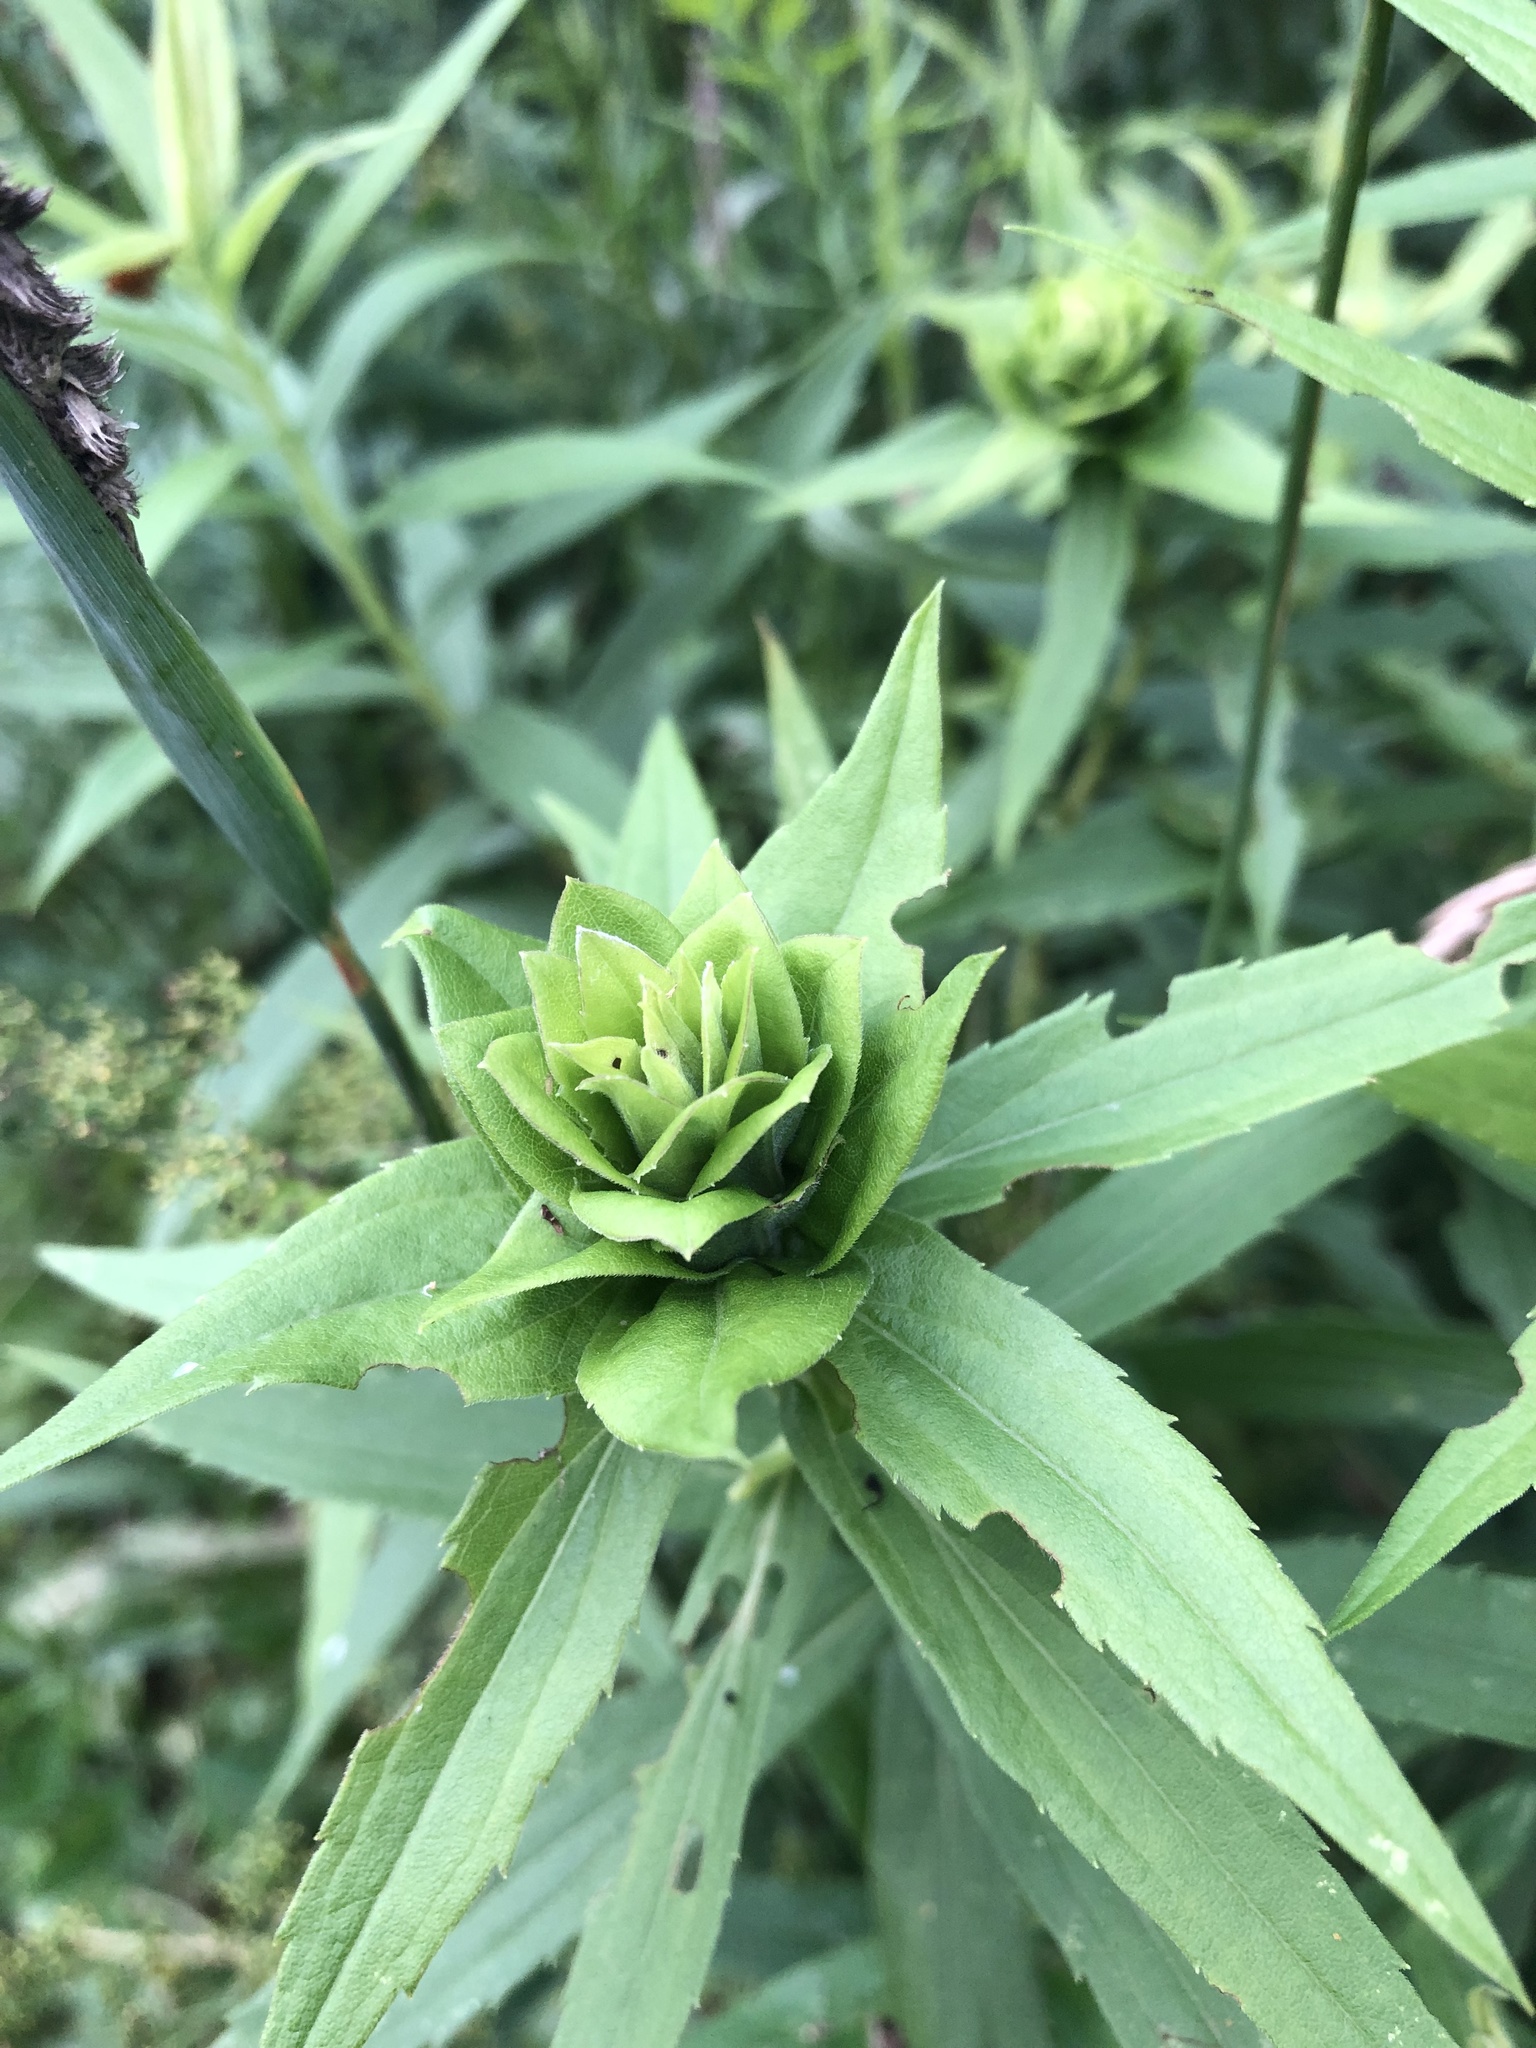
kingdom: Animalia
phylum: Arthropoda
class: Insecta
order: Diptera
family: Cecidomyiidae
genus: Rhopalomyia
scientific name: Rhopalomyia solidaginis
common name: Goldenrod bunch gall midge
